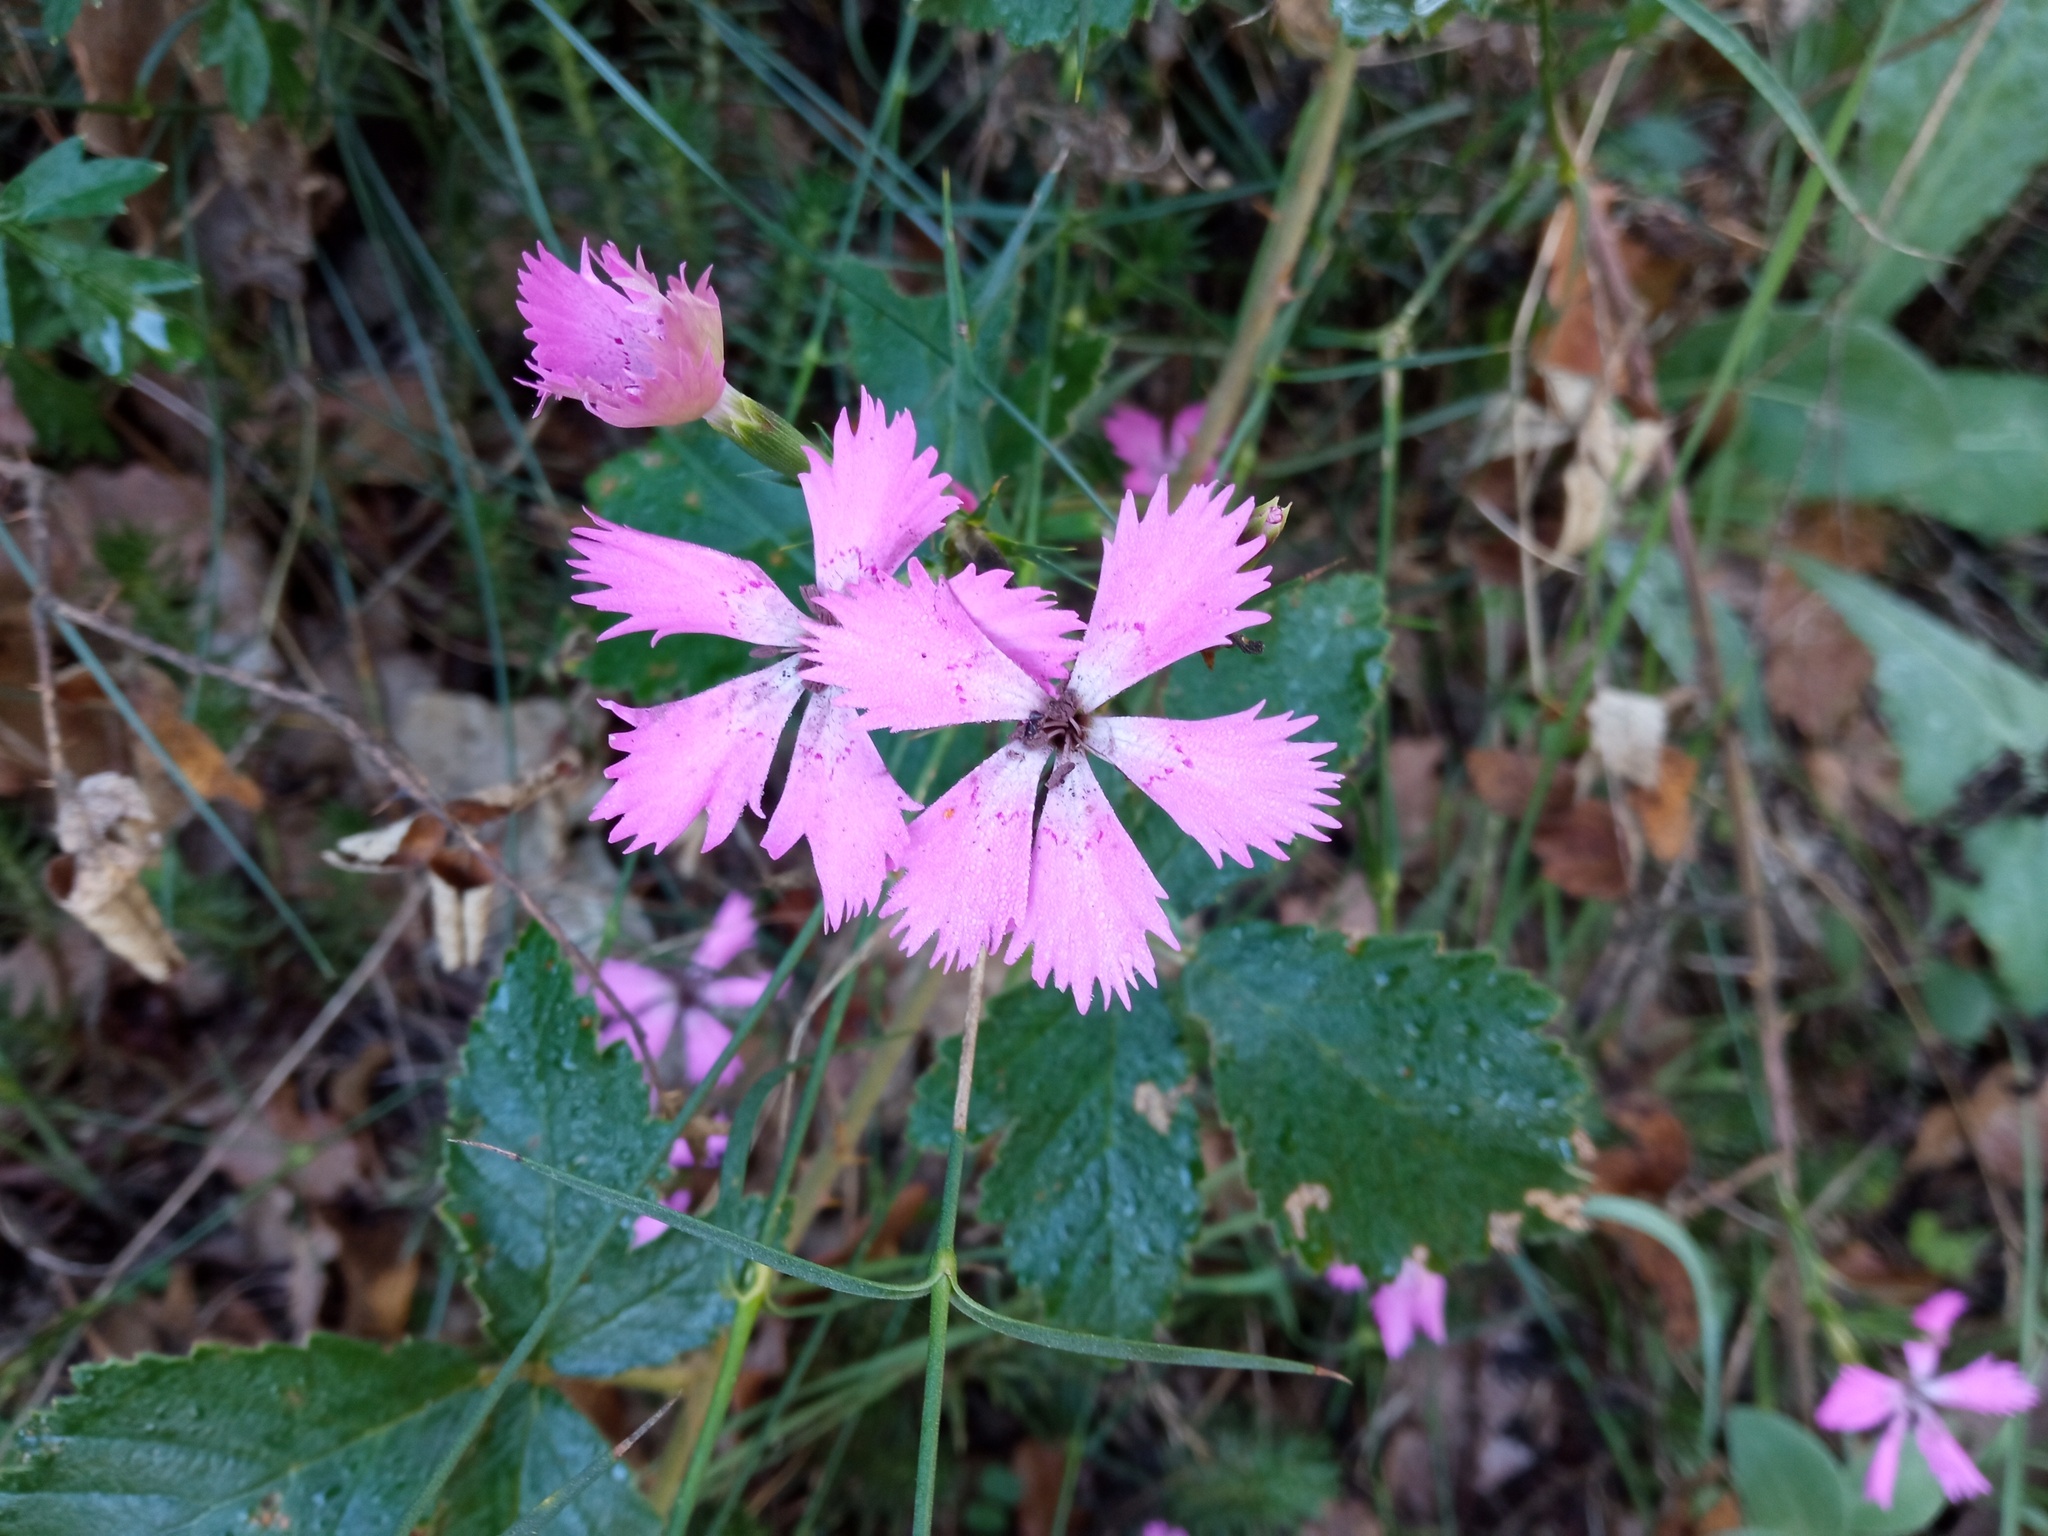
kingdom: Plantae
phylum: Tracheophyta
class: Magnoliopsida
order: Caryophyllales
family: Caryophyllaceae
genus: Dianthus
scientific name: Dianthus seguieri
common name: Ragged pink
